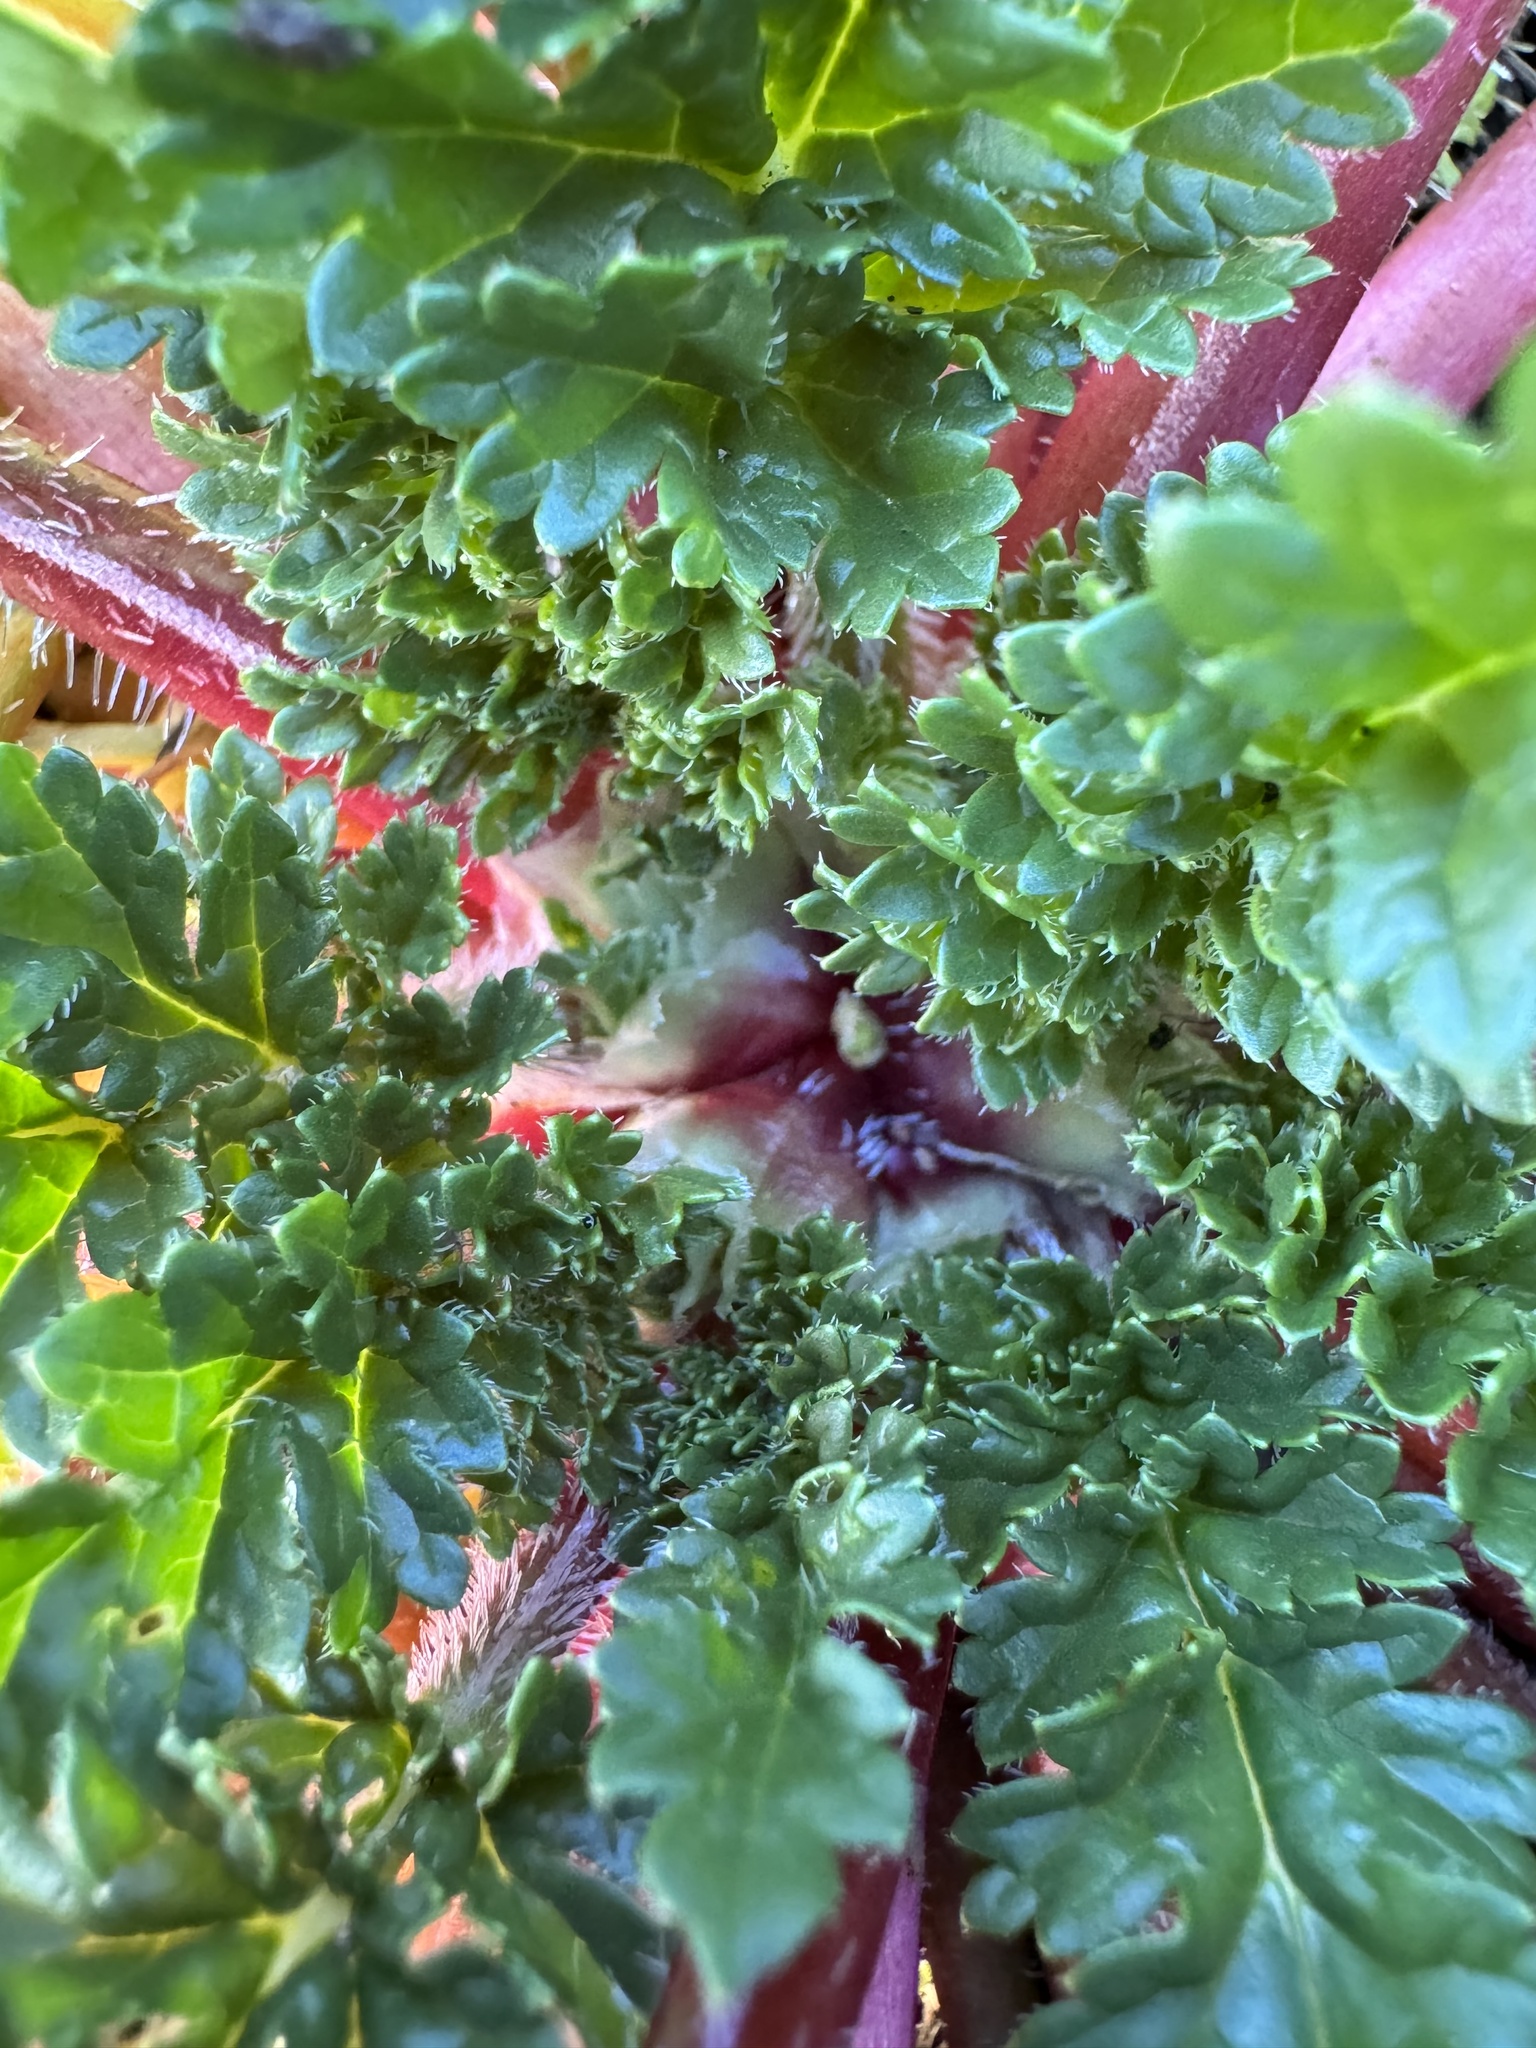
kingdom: Plantae
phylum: Tracheophyta
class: Magnoliopsida
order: Geraniales
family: Geraniaceae
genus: Erodium
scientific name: Erodium
